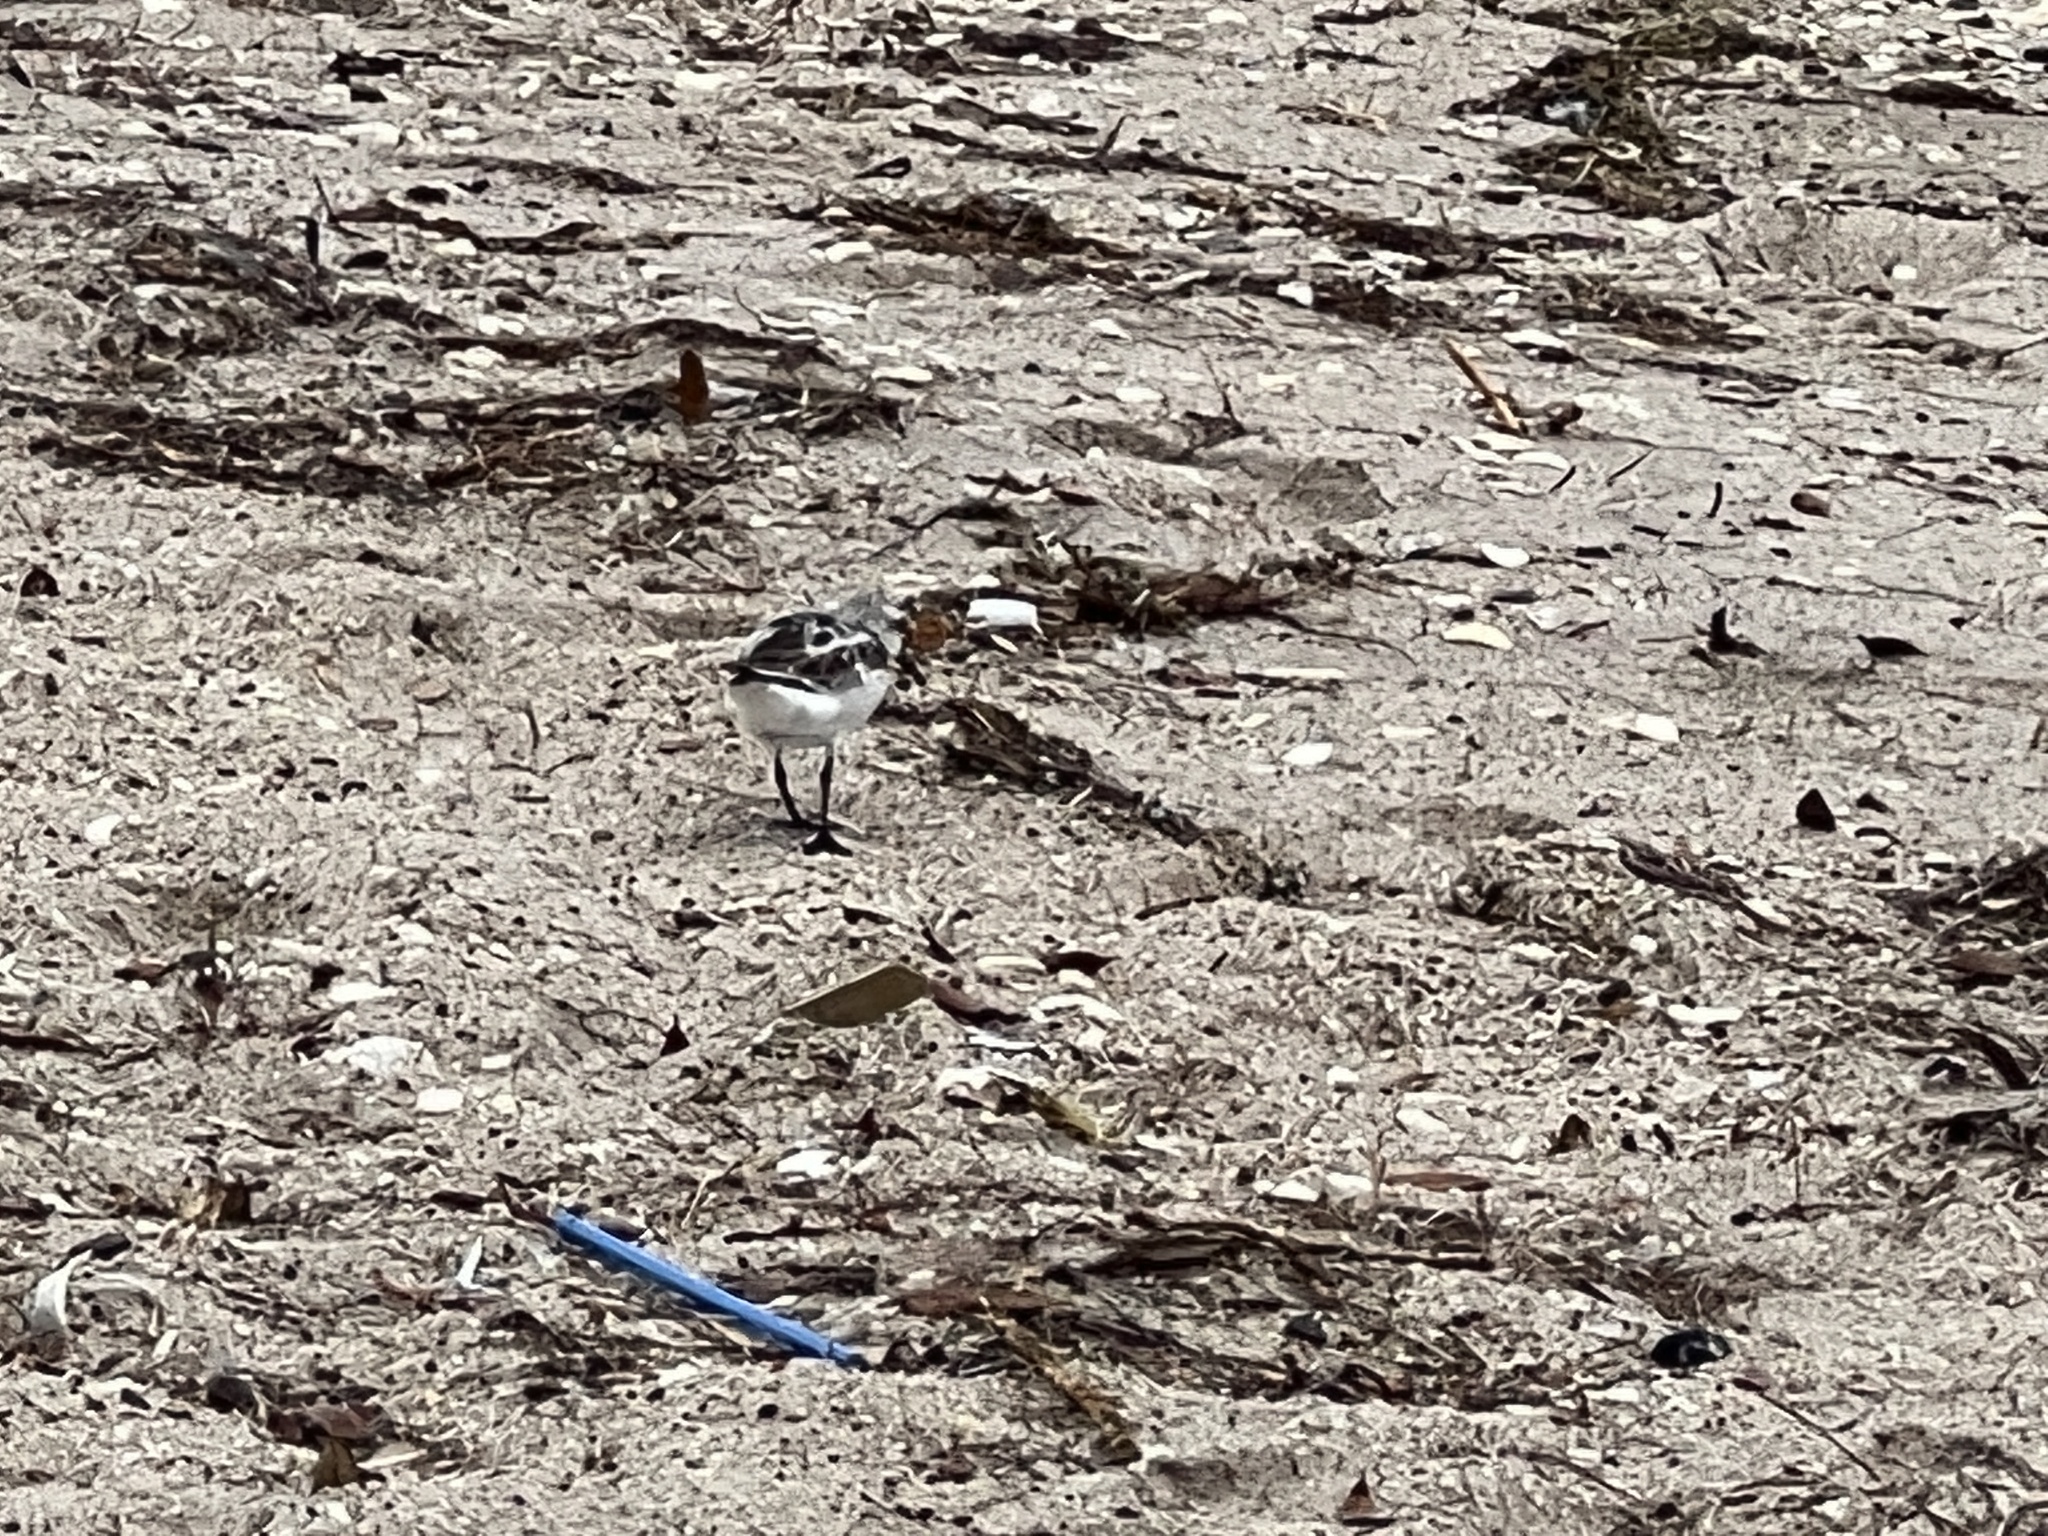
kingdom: Animalia
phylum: Chordata
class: Aves
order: Charadriiformes
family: Scolopacidae
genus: Calidris
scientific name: Calidris alba
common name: Sanderling
